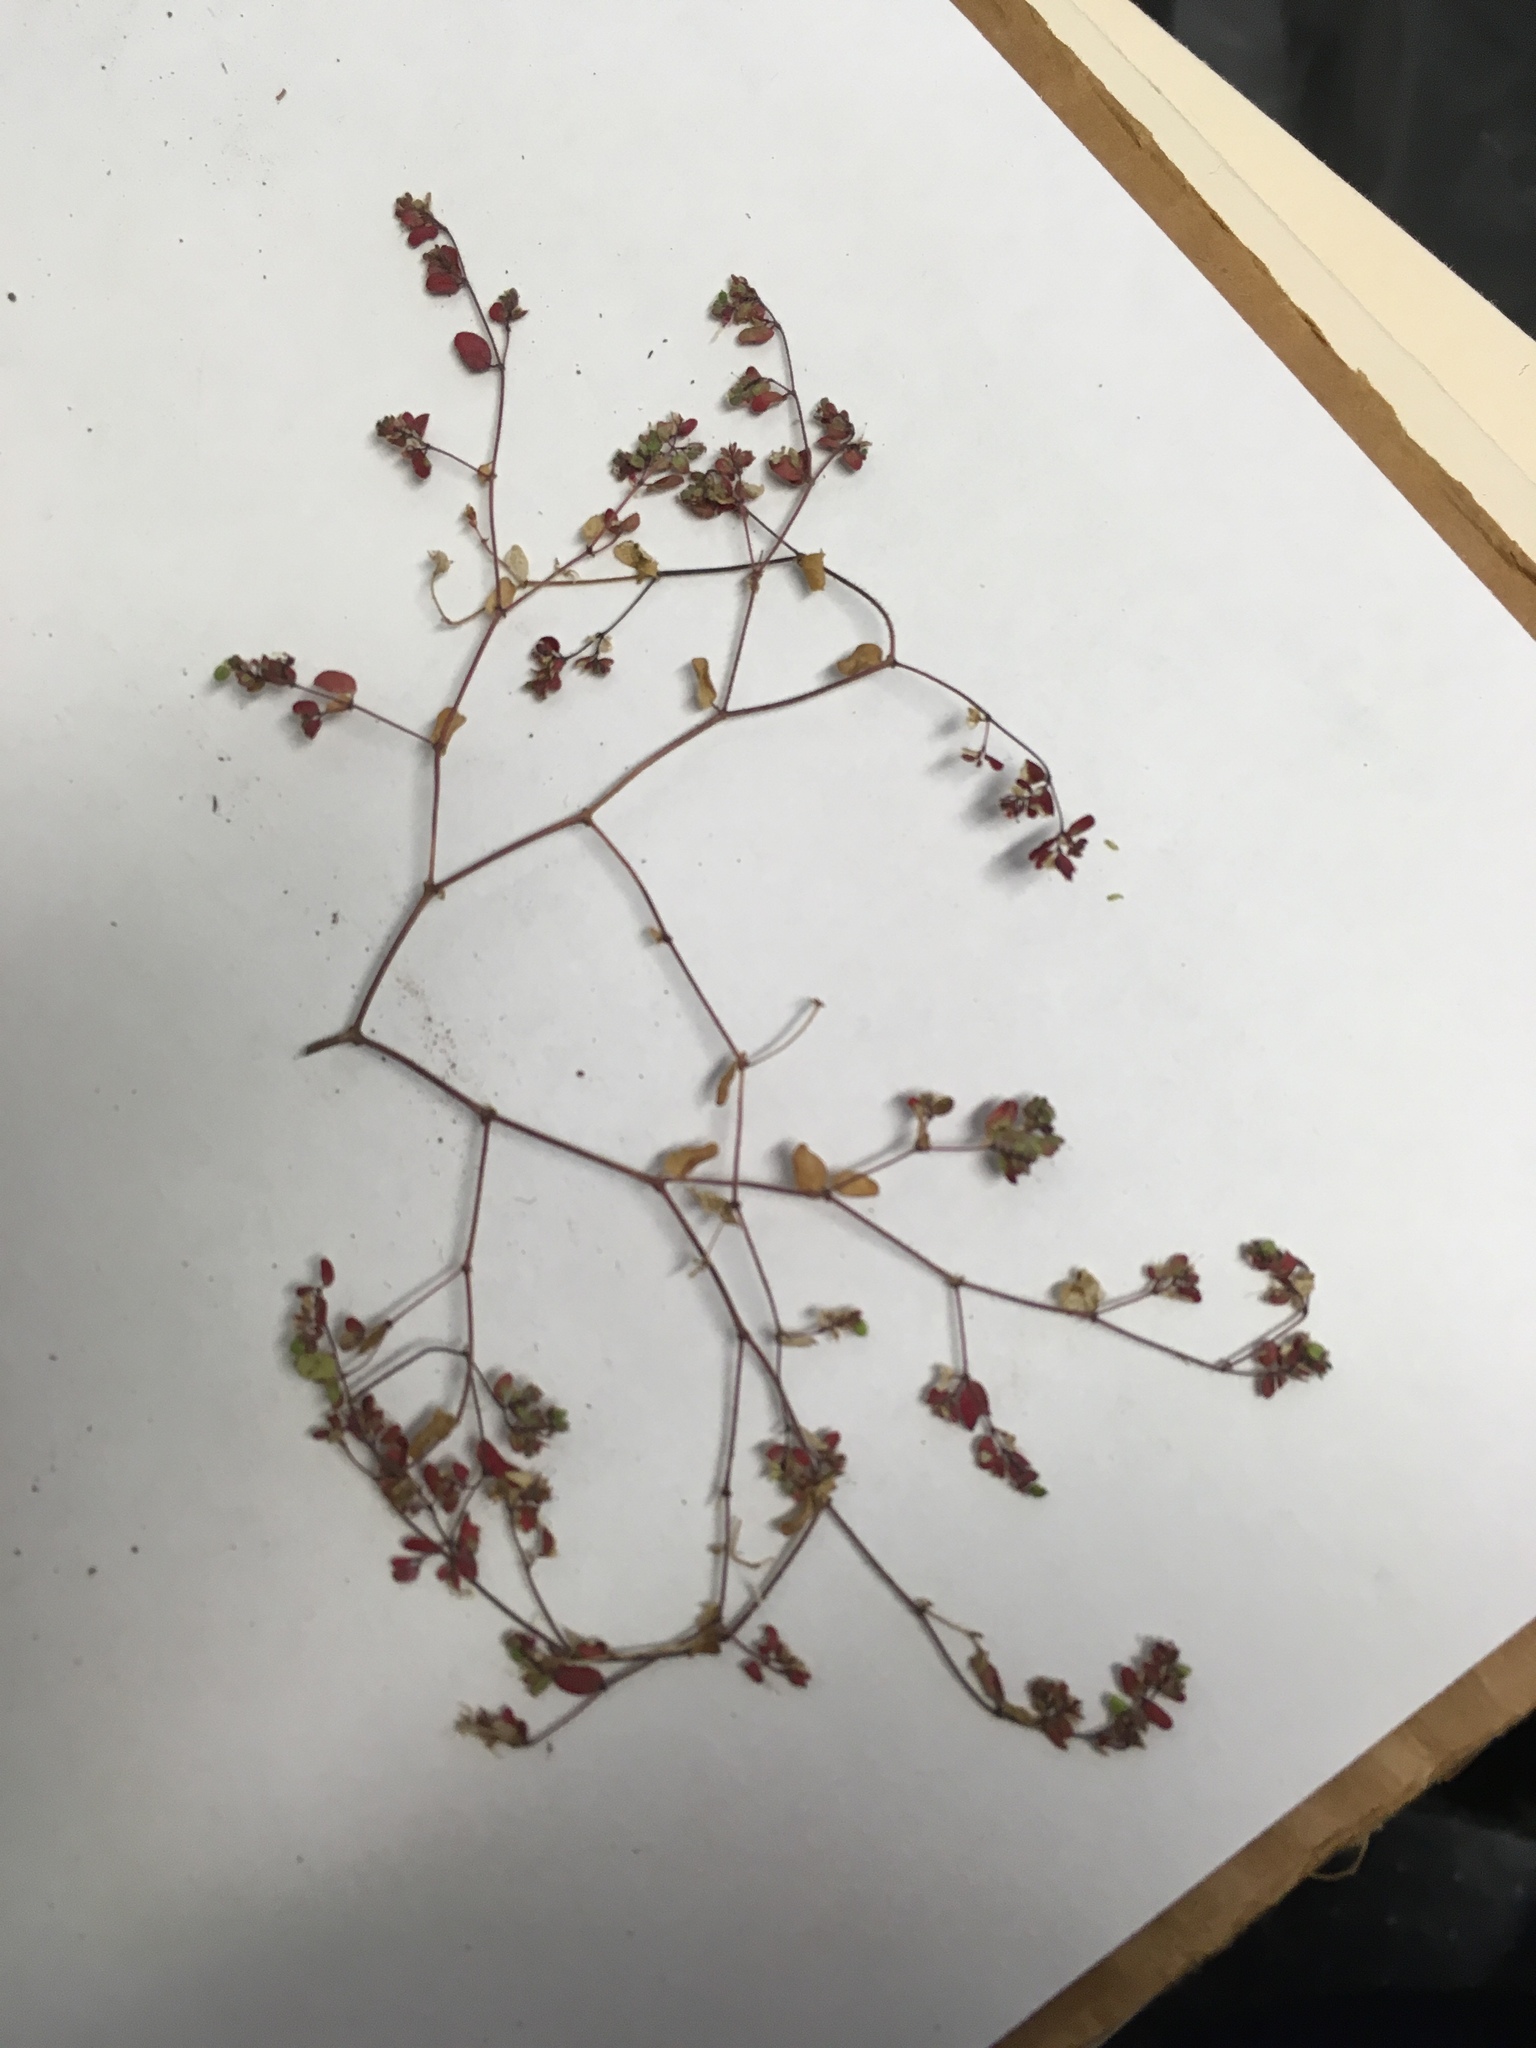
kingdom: Plantae
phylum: Tracheophyta
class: Magnoliopsida
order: Malpighiales
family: Euphorbiaceae
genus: Euphorbia
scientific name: Euphorbia setiloba
